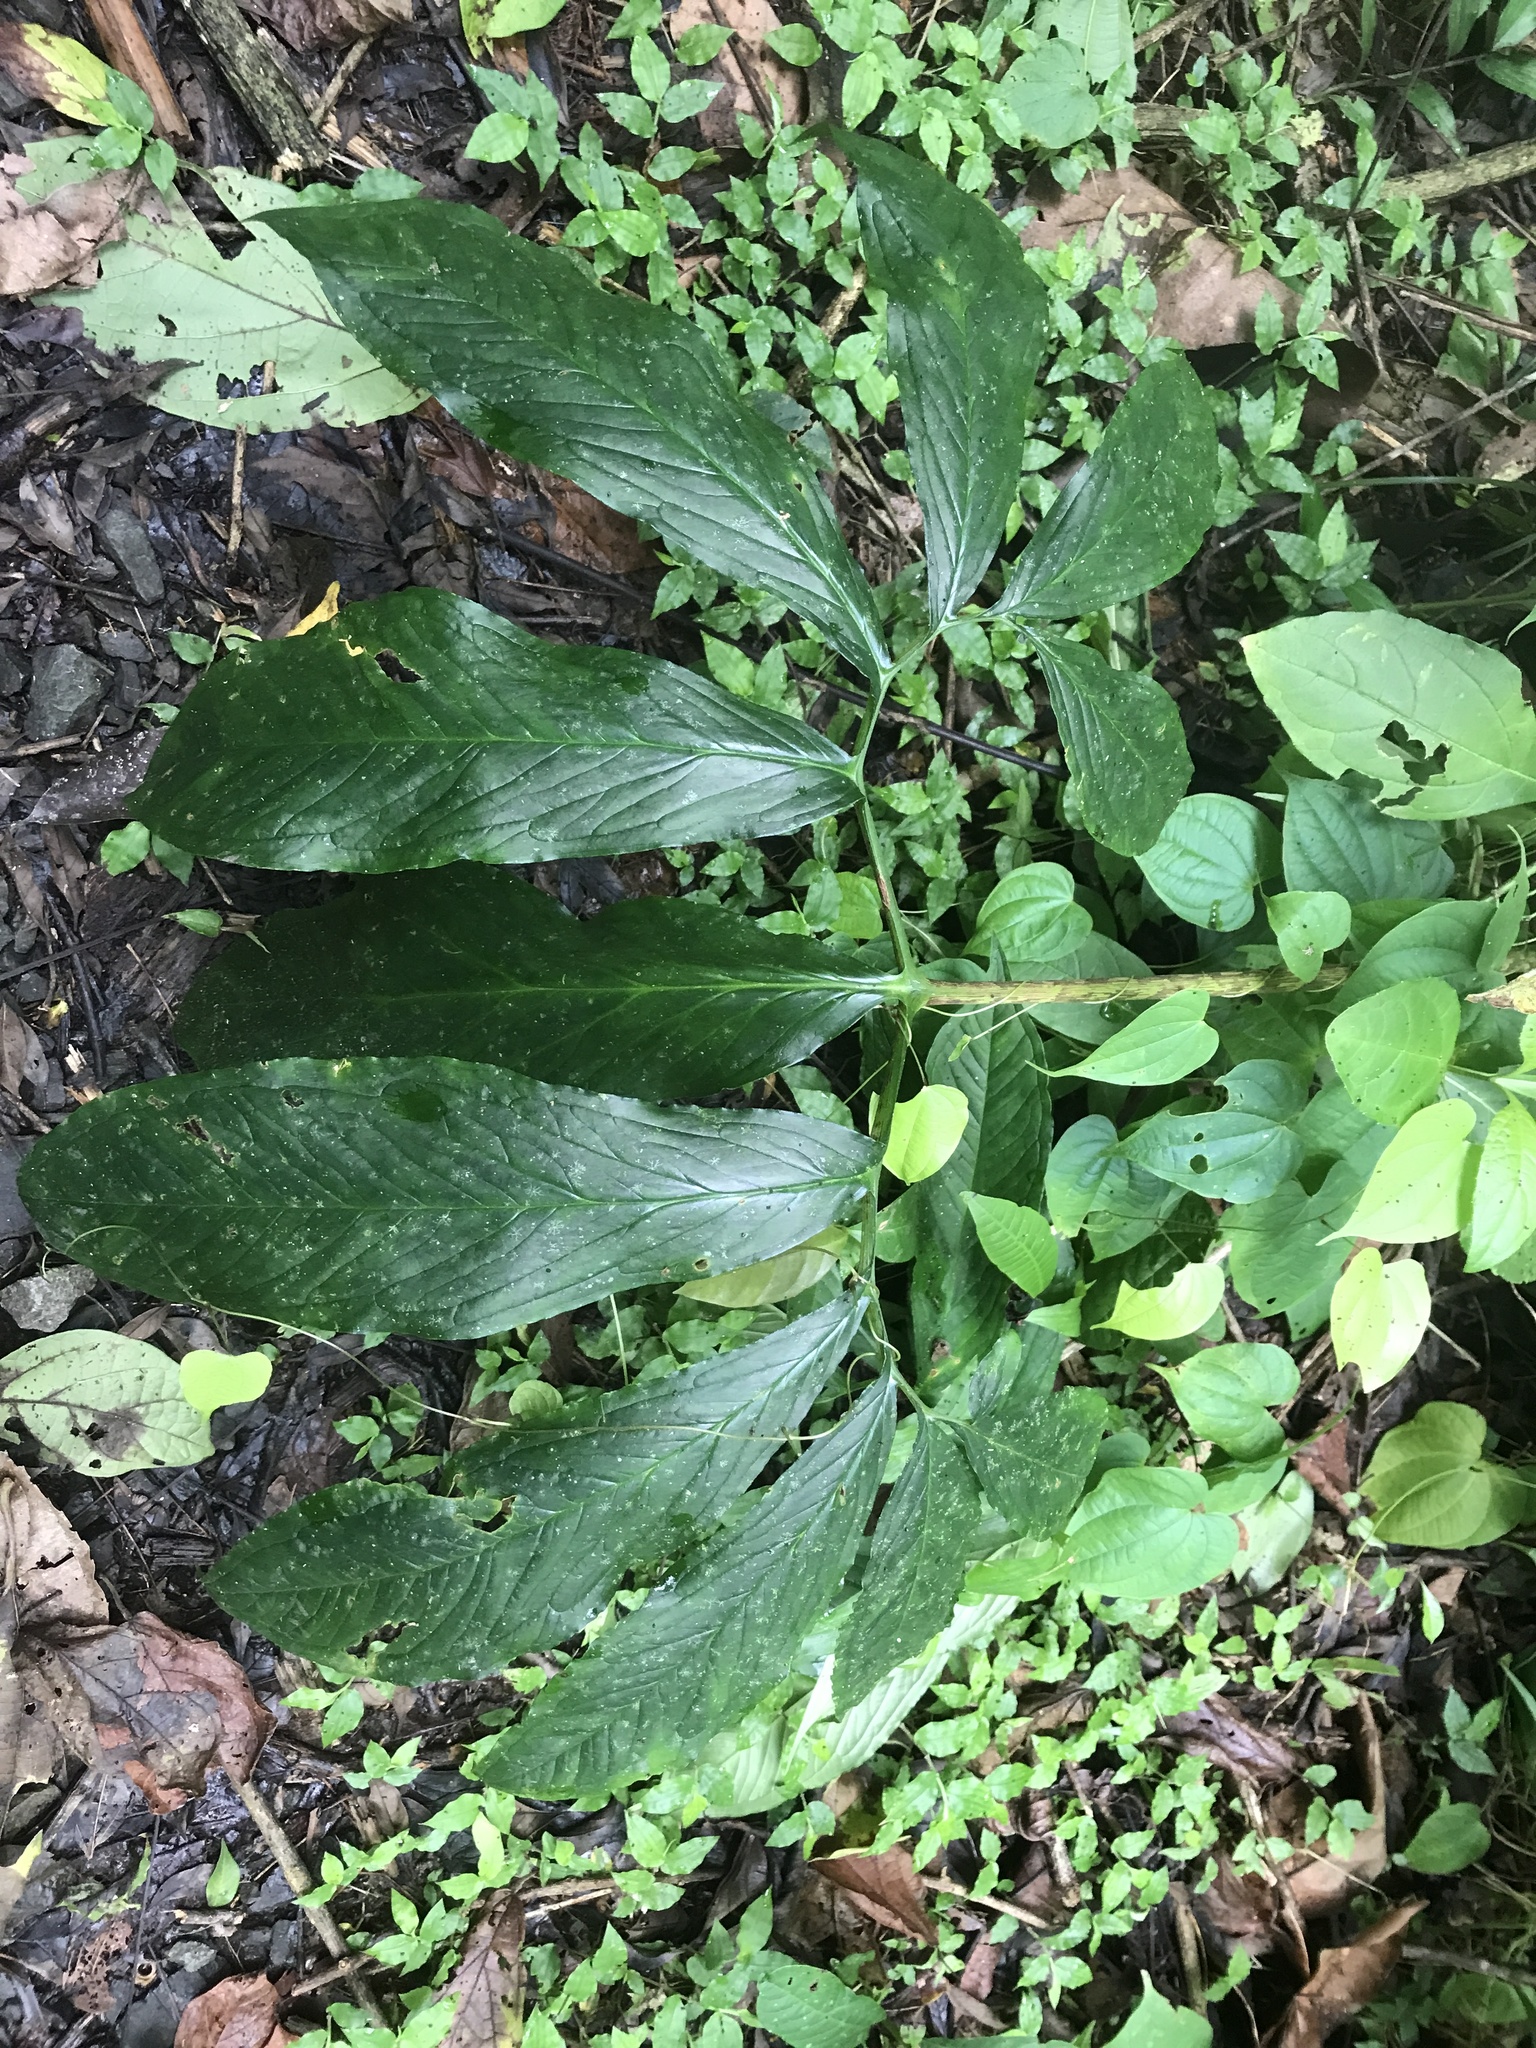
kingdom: Plantae
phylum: Tracheophyta
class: Liliopsida
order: Alismatales
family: Araceae
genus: Xanthosoma
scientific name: Xanthosoma helleborifolium
